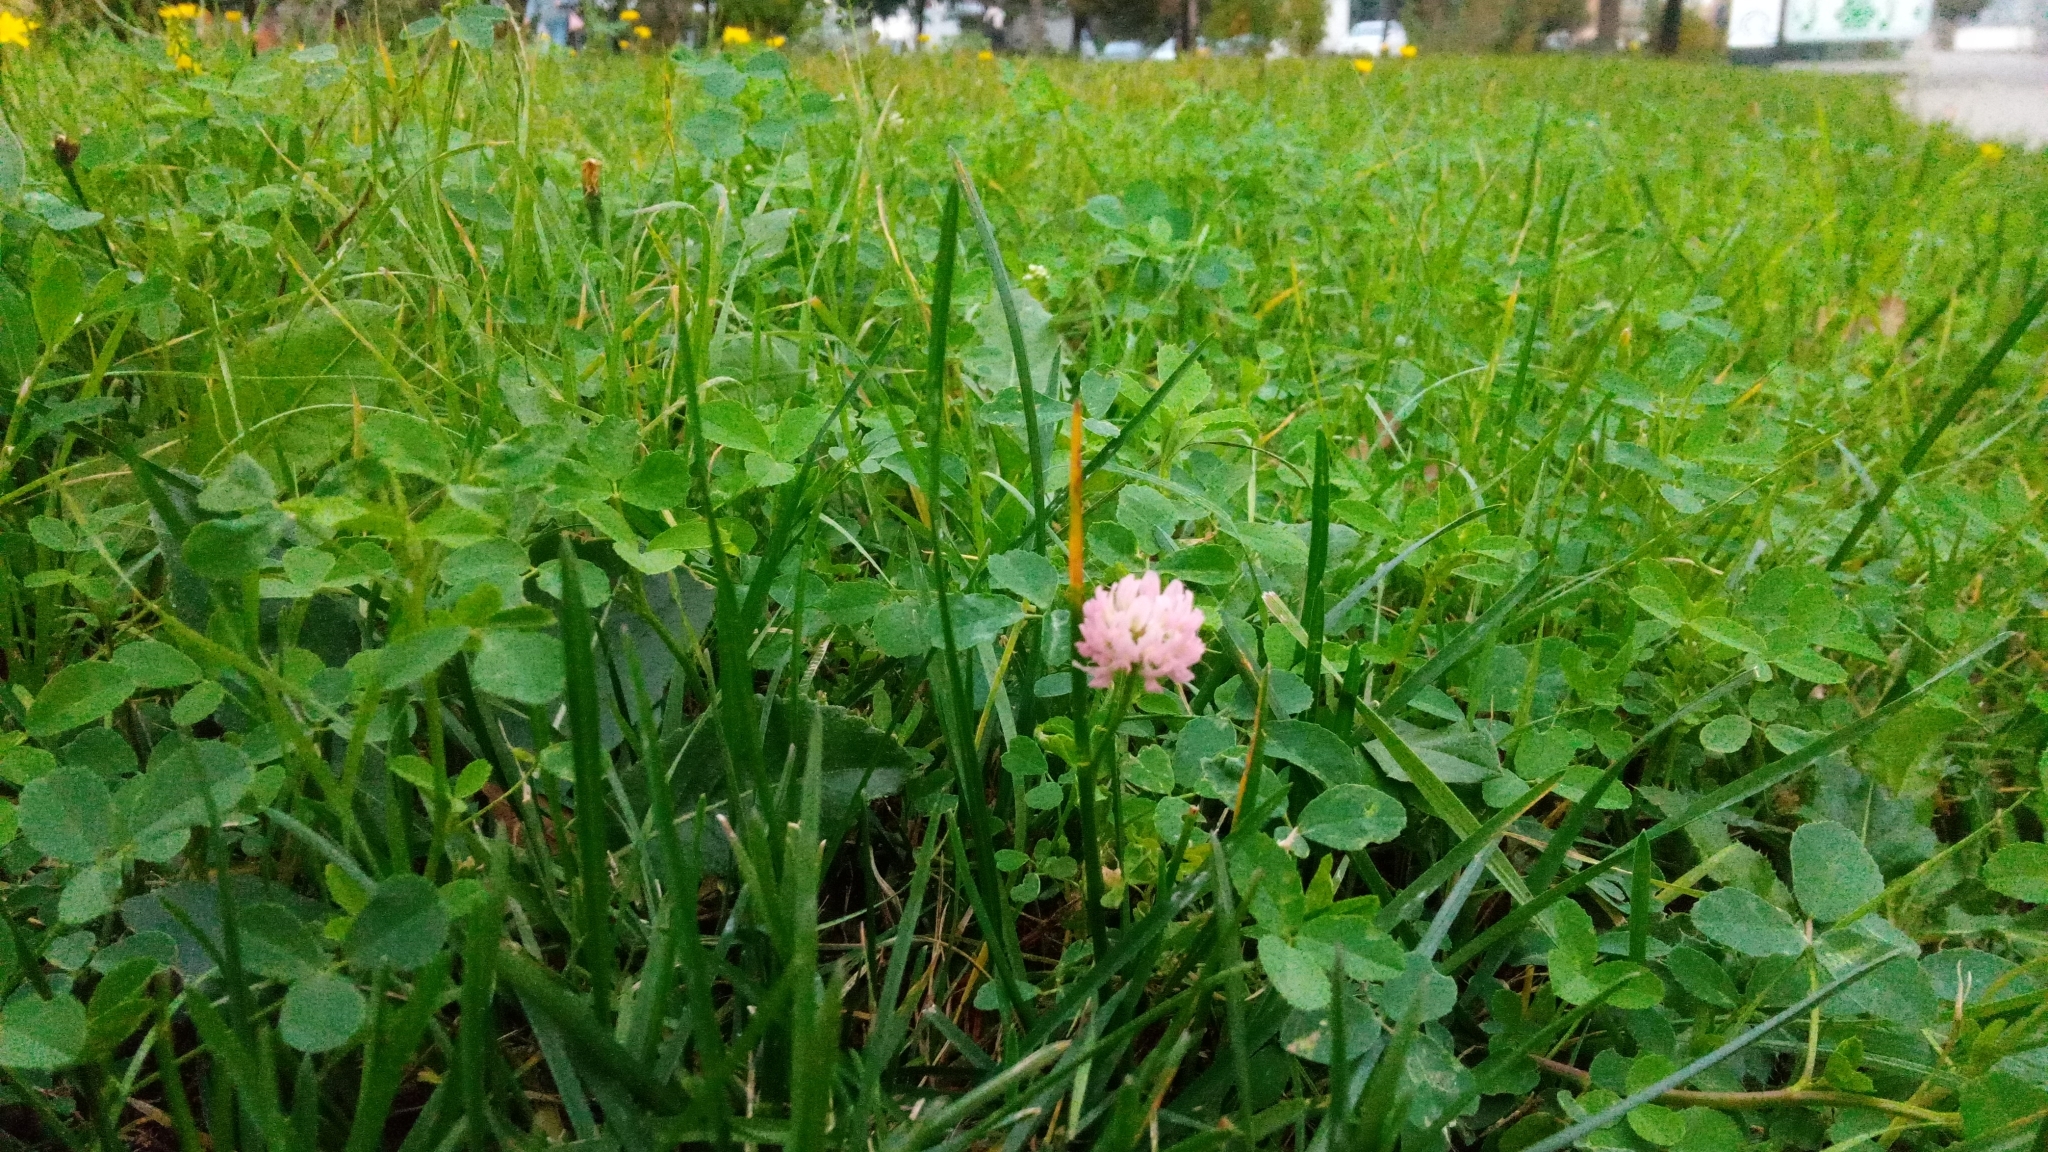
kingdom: Plantae
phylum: Tracheophyta
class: Magnoliopsida
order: Fabales
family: Fabaceae
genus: Trifolium
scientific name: Trifolium hybridum
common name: Alsike clover
